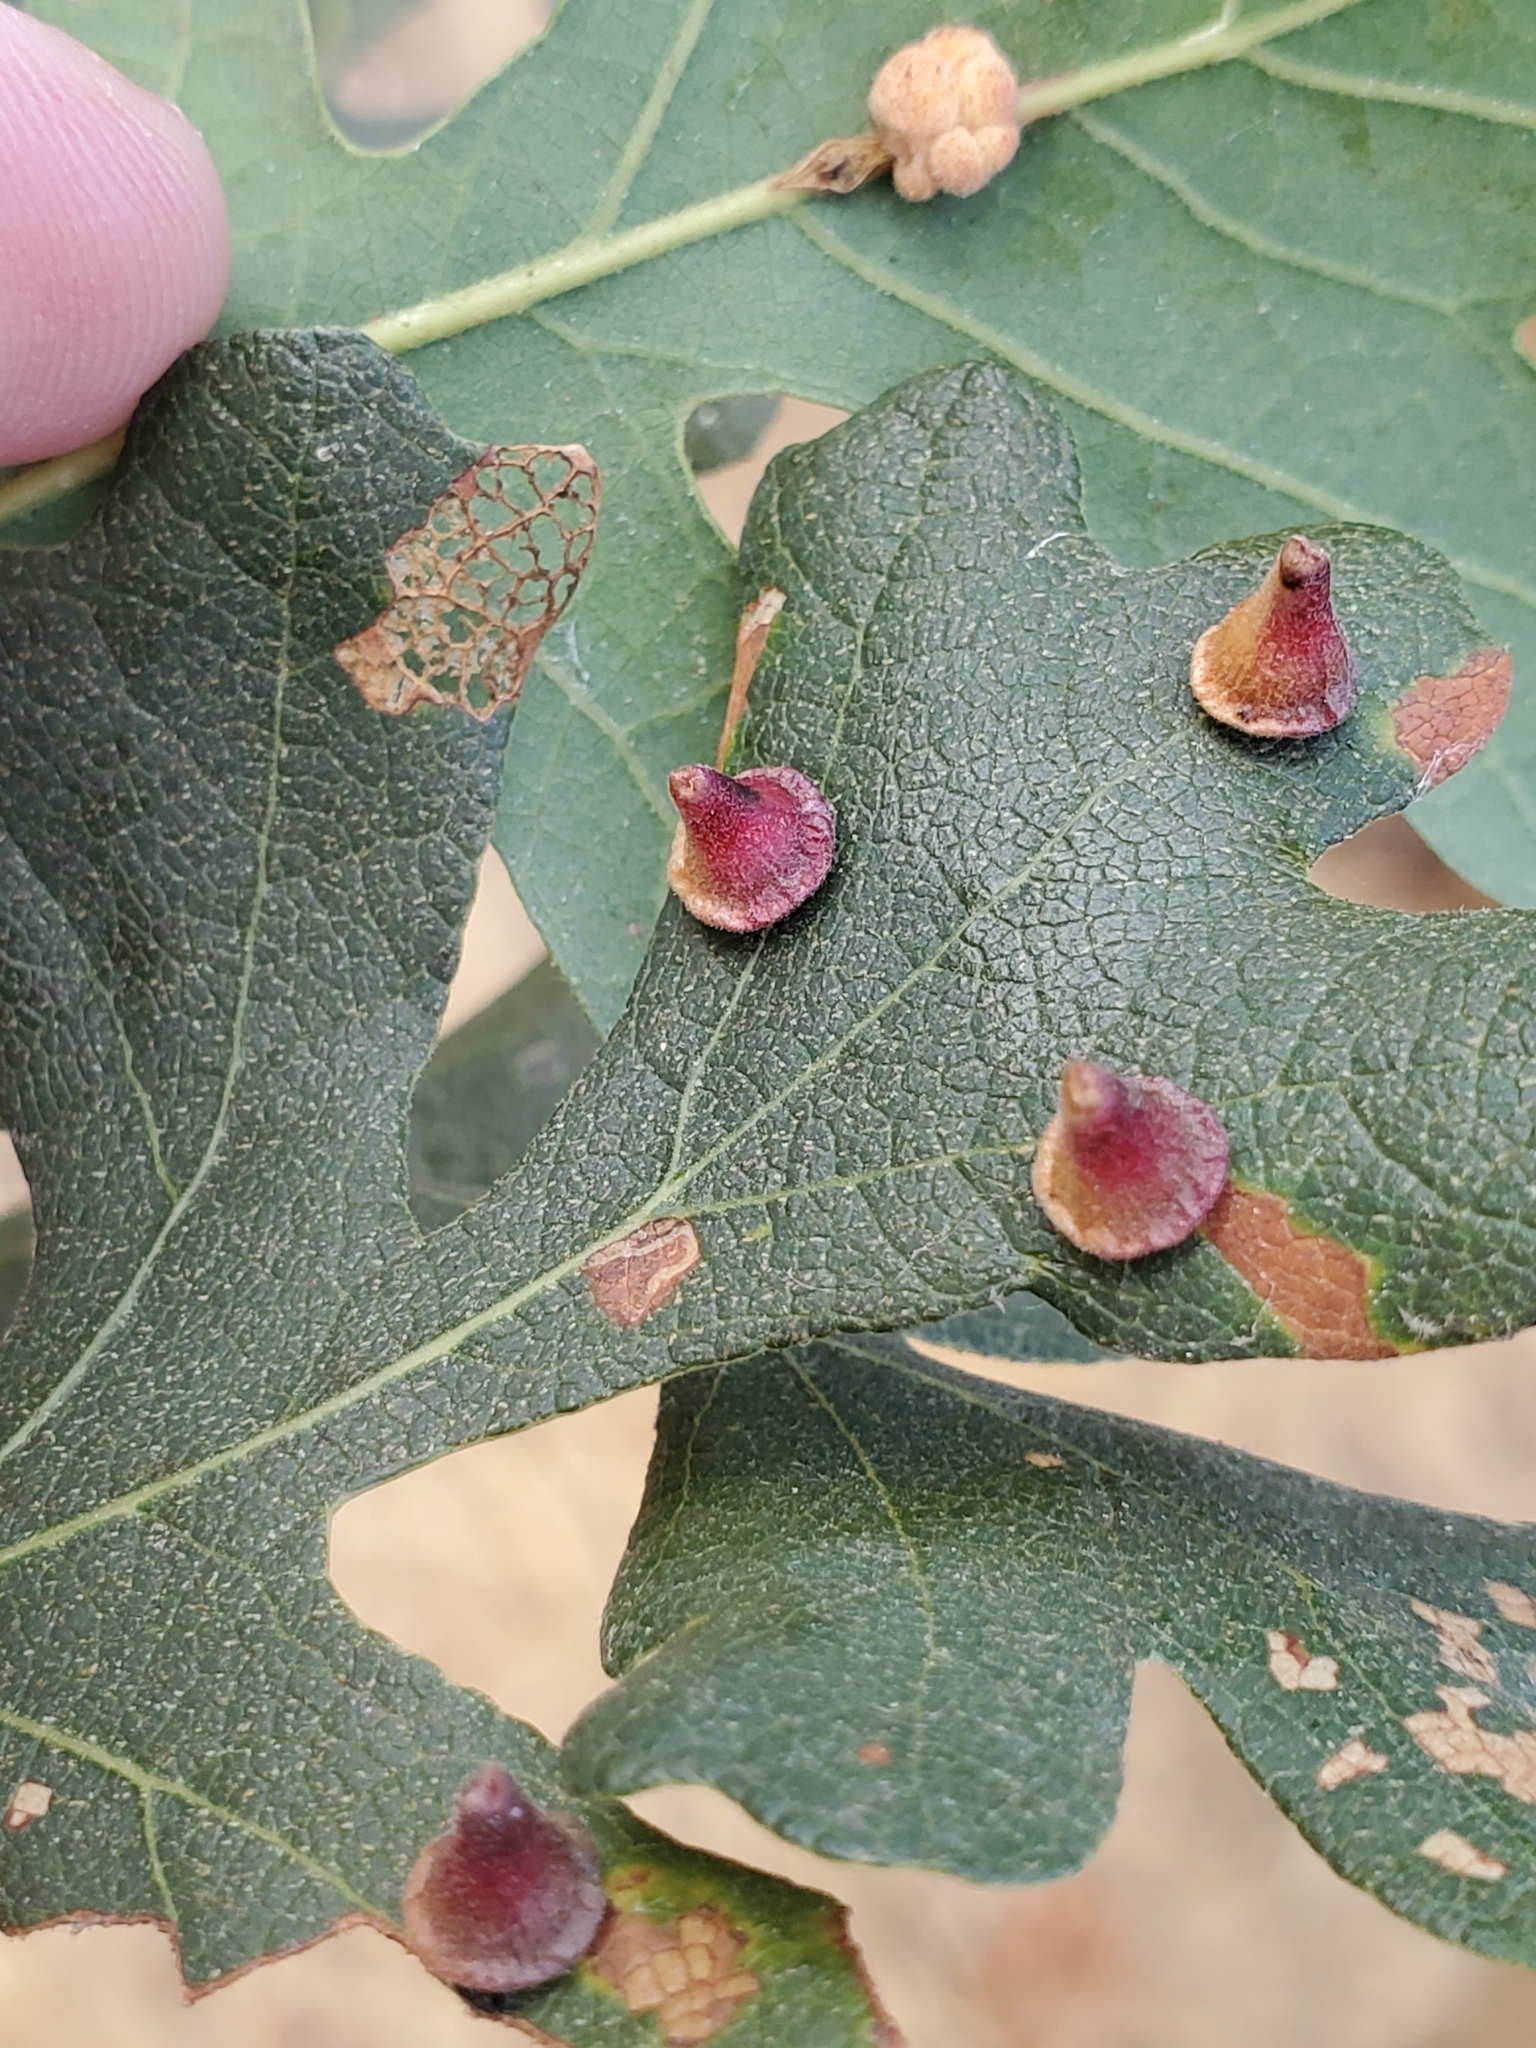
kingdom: Animalia
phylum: Arthropoda
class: Insecta
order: Hymenoptera
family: Cynipidae
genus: Andricus
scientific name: Andricus
